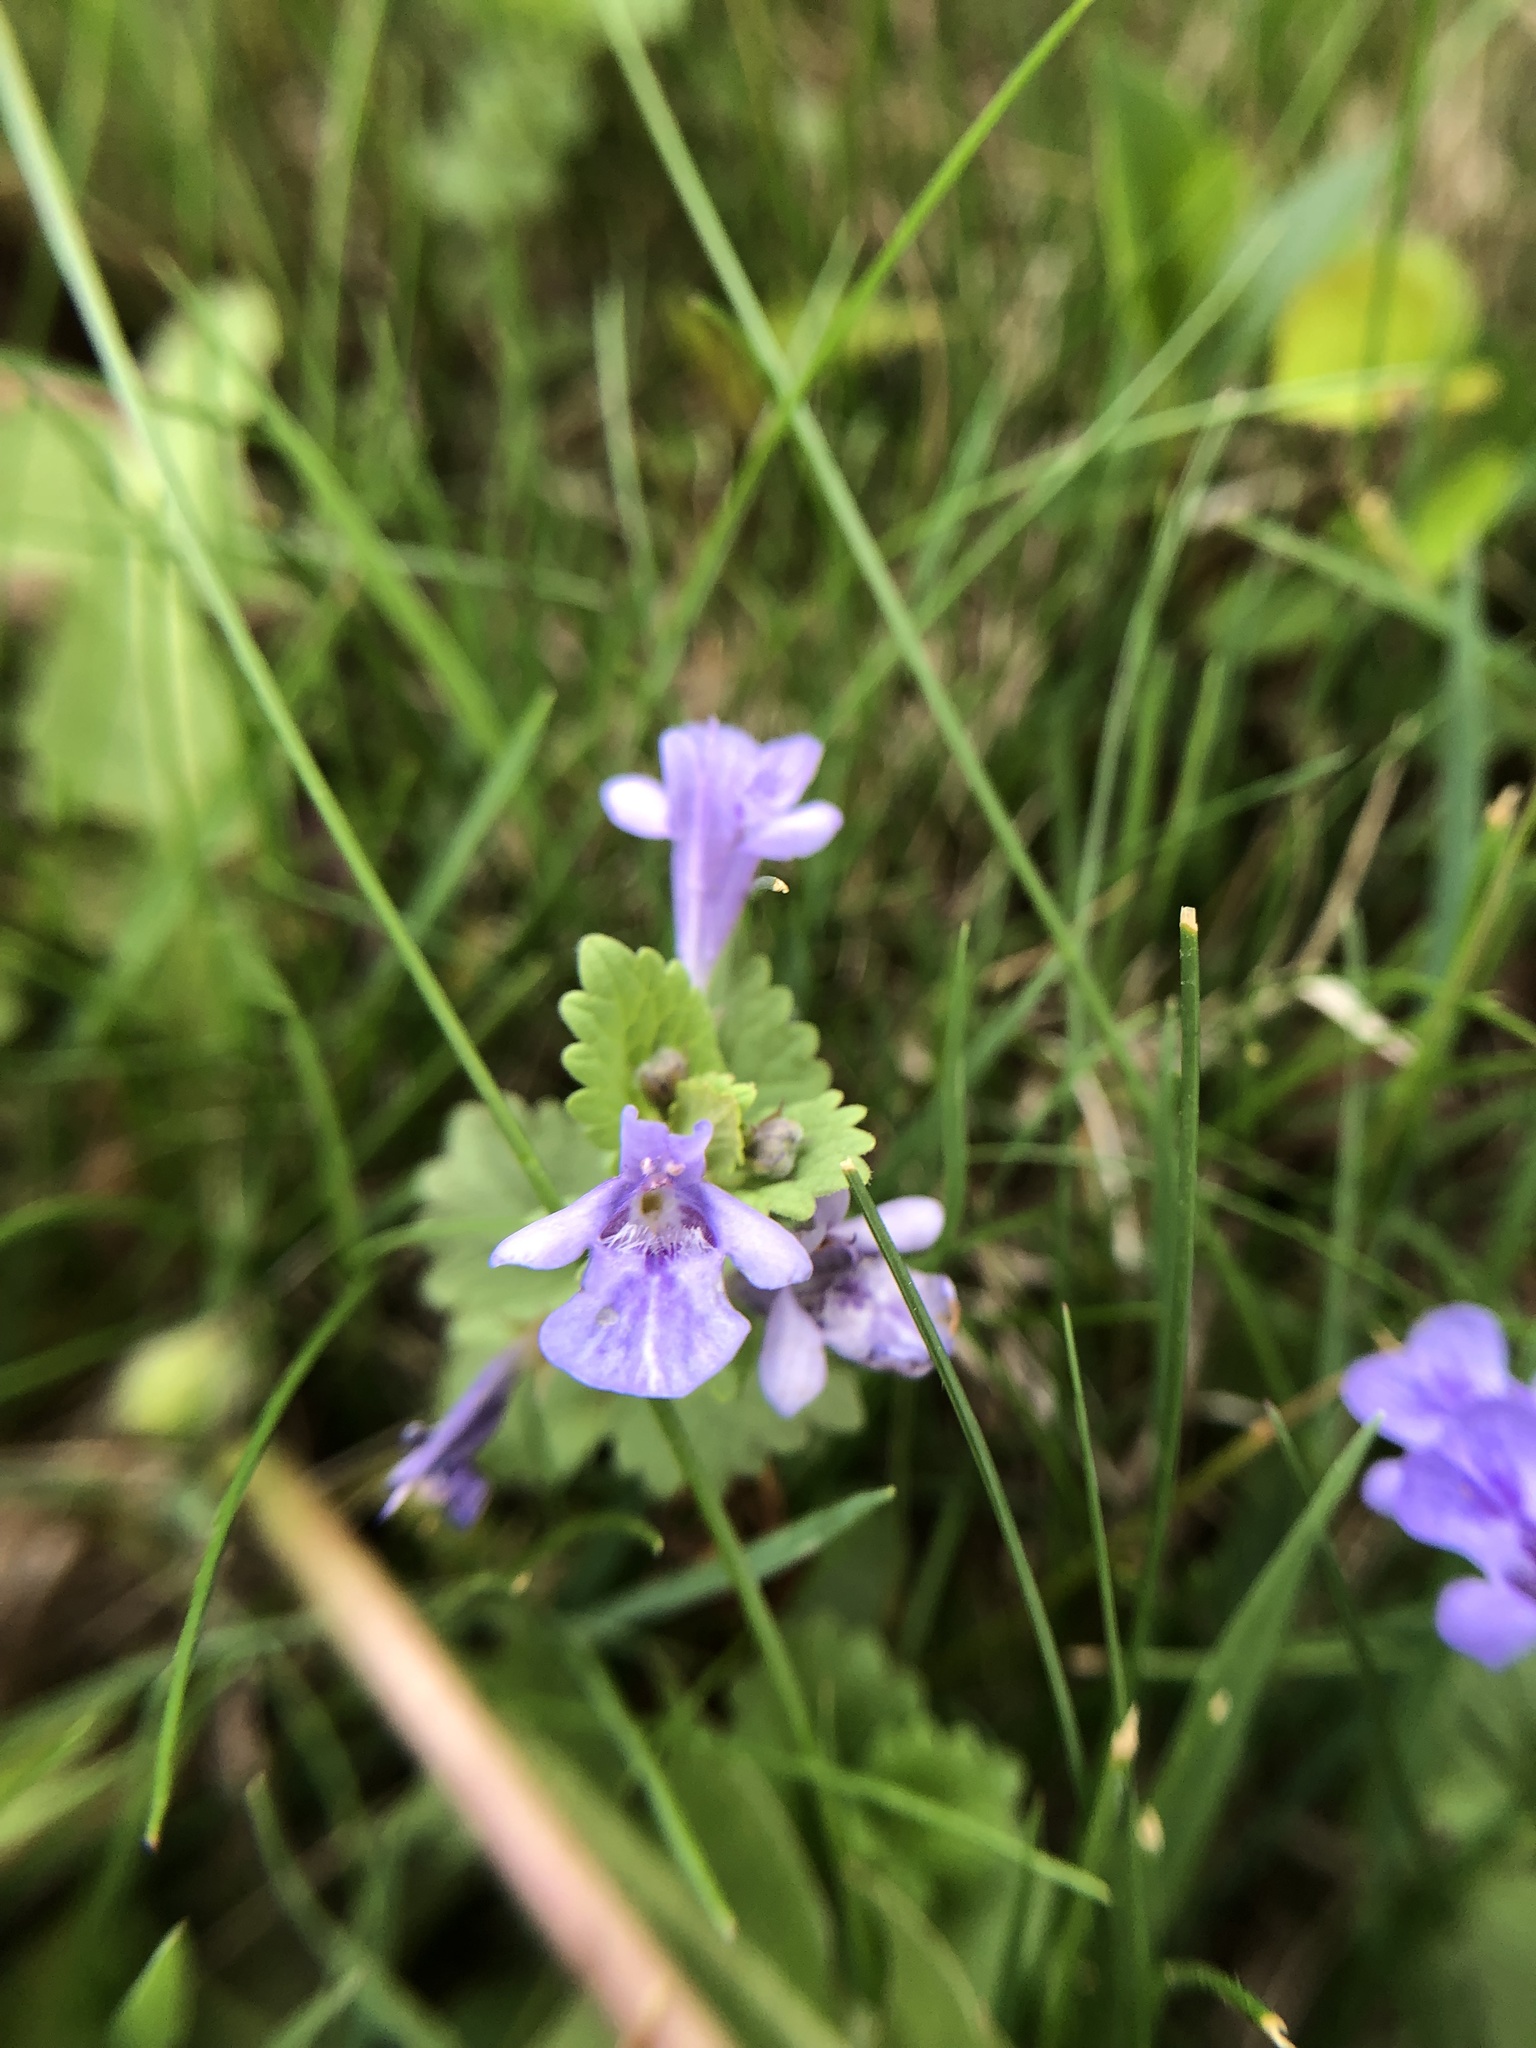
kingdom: Plantae
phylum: Tracheophyta
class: Magnoliopsida
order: Lamiales
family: Lamiaceae
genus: Glechoma
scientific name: Glechoma hederacea
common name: Ground ivy
